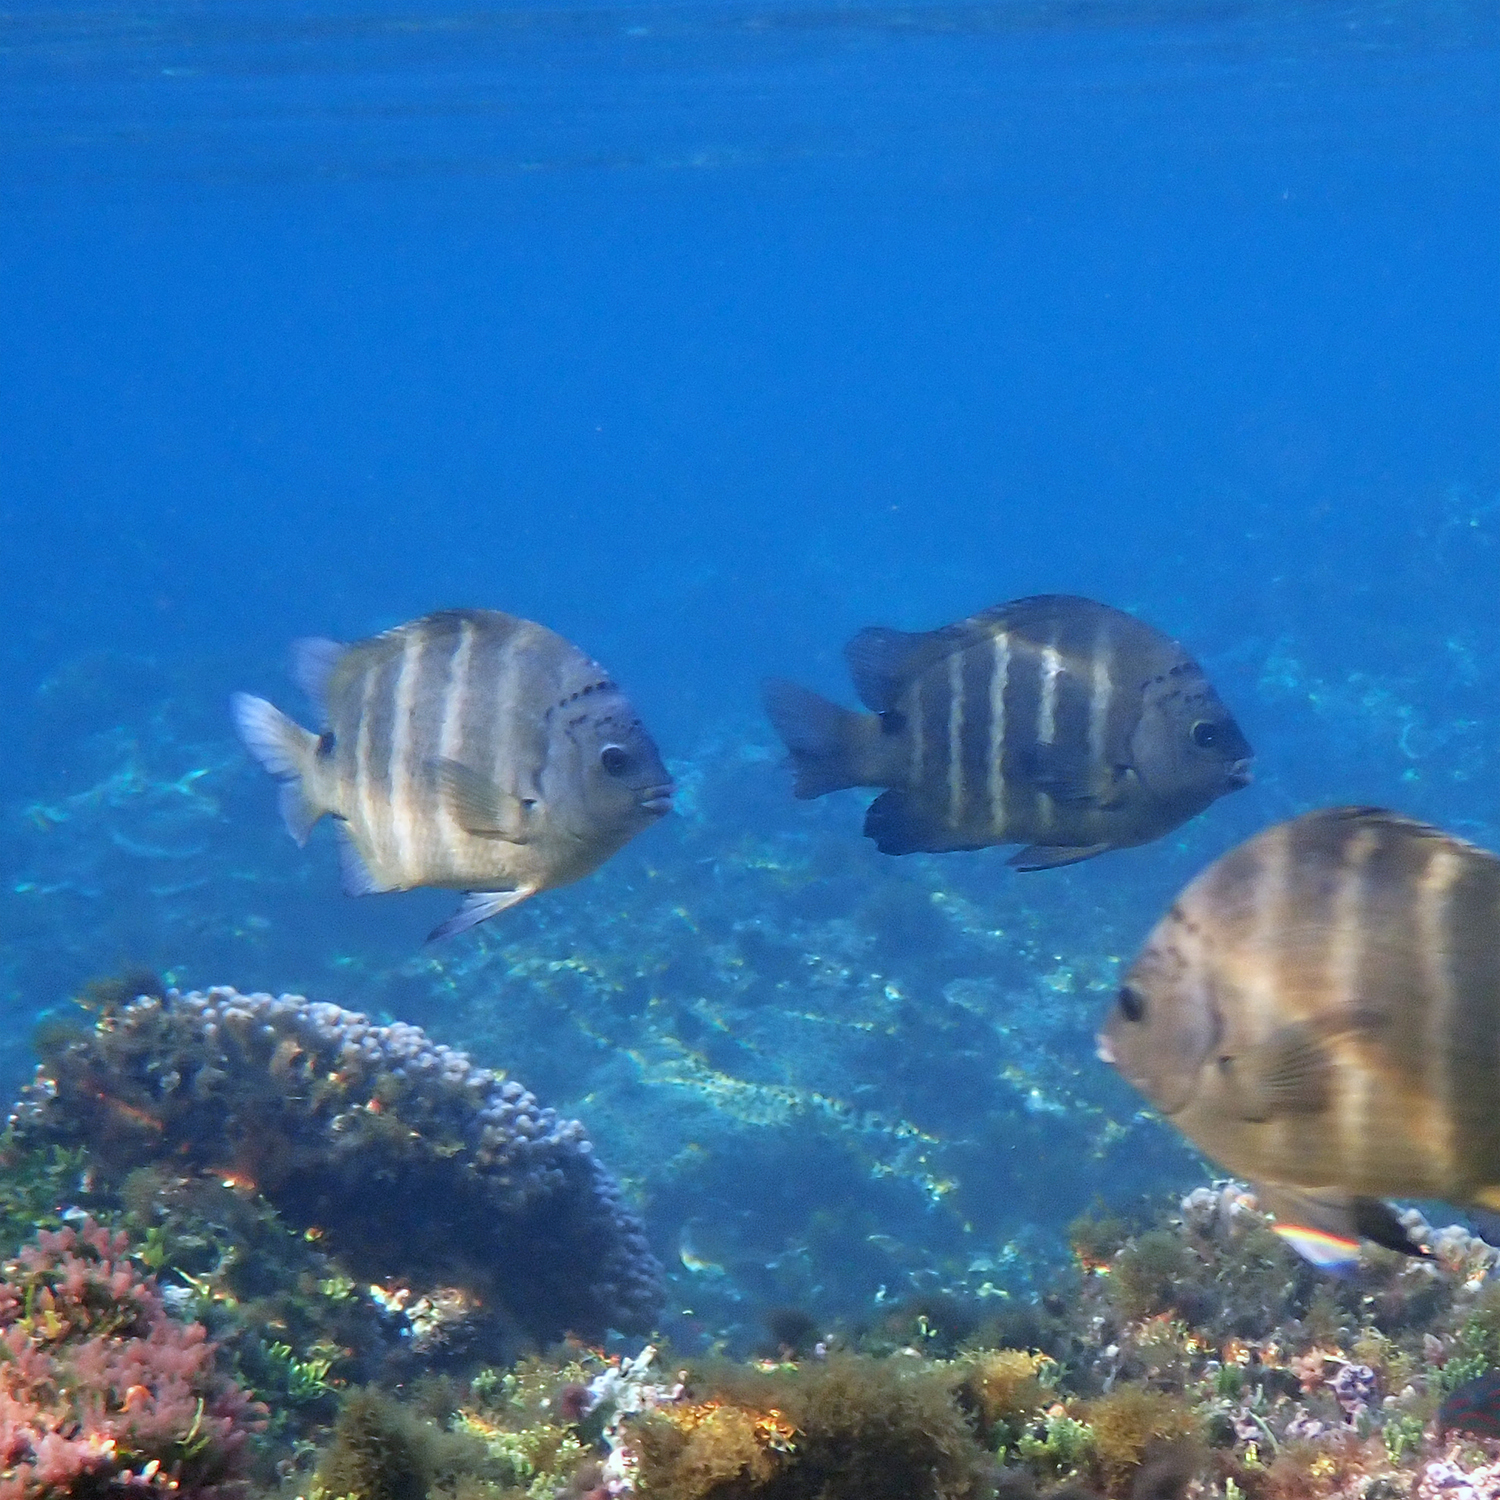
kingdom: Animalia
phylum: Chordata
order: Perciformes
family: Pomacentridae
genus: Abudefduf
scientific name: Abudefduf sordidus
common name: Blackspot sergeant
